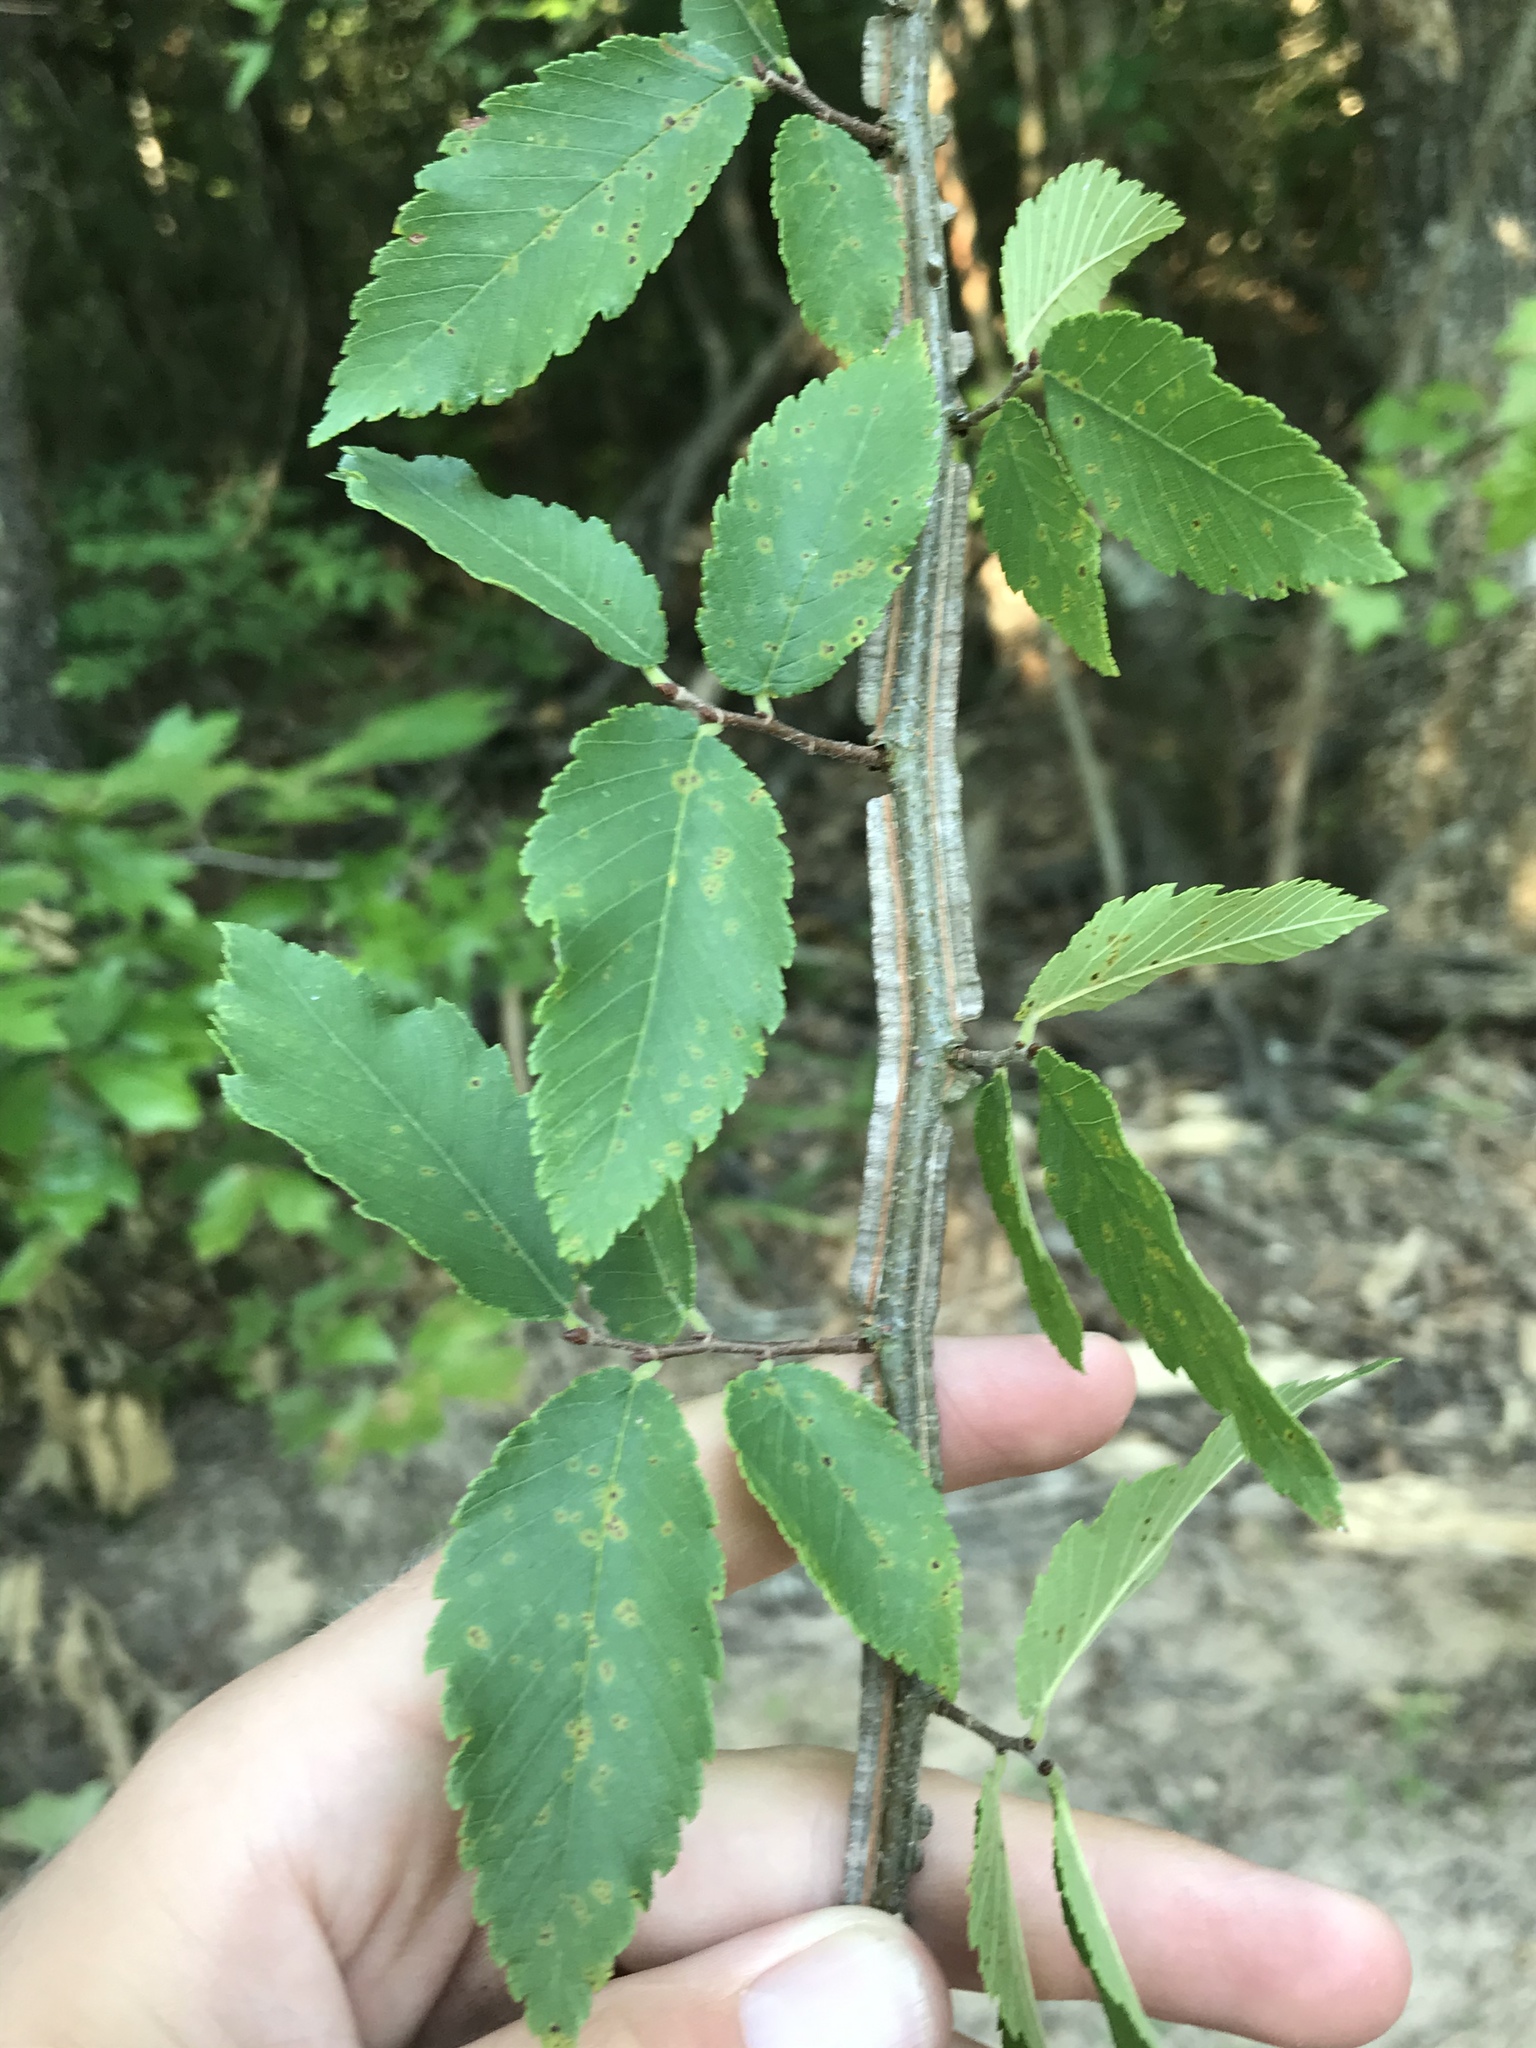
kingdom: Plantae
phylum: Tracheophyta
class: Magnoliopsida
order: Rosales
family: Ulmaceae
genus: Ulmus
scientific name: Ulmus alata
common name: Winged elm
